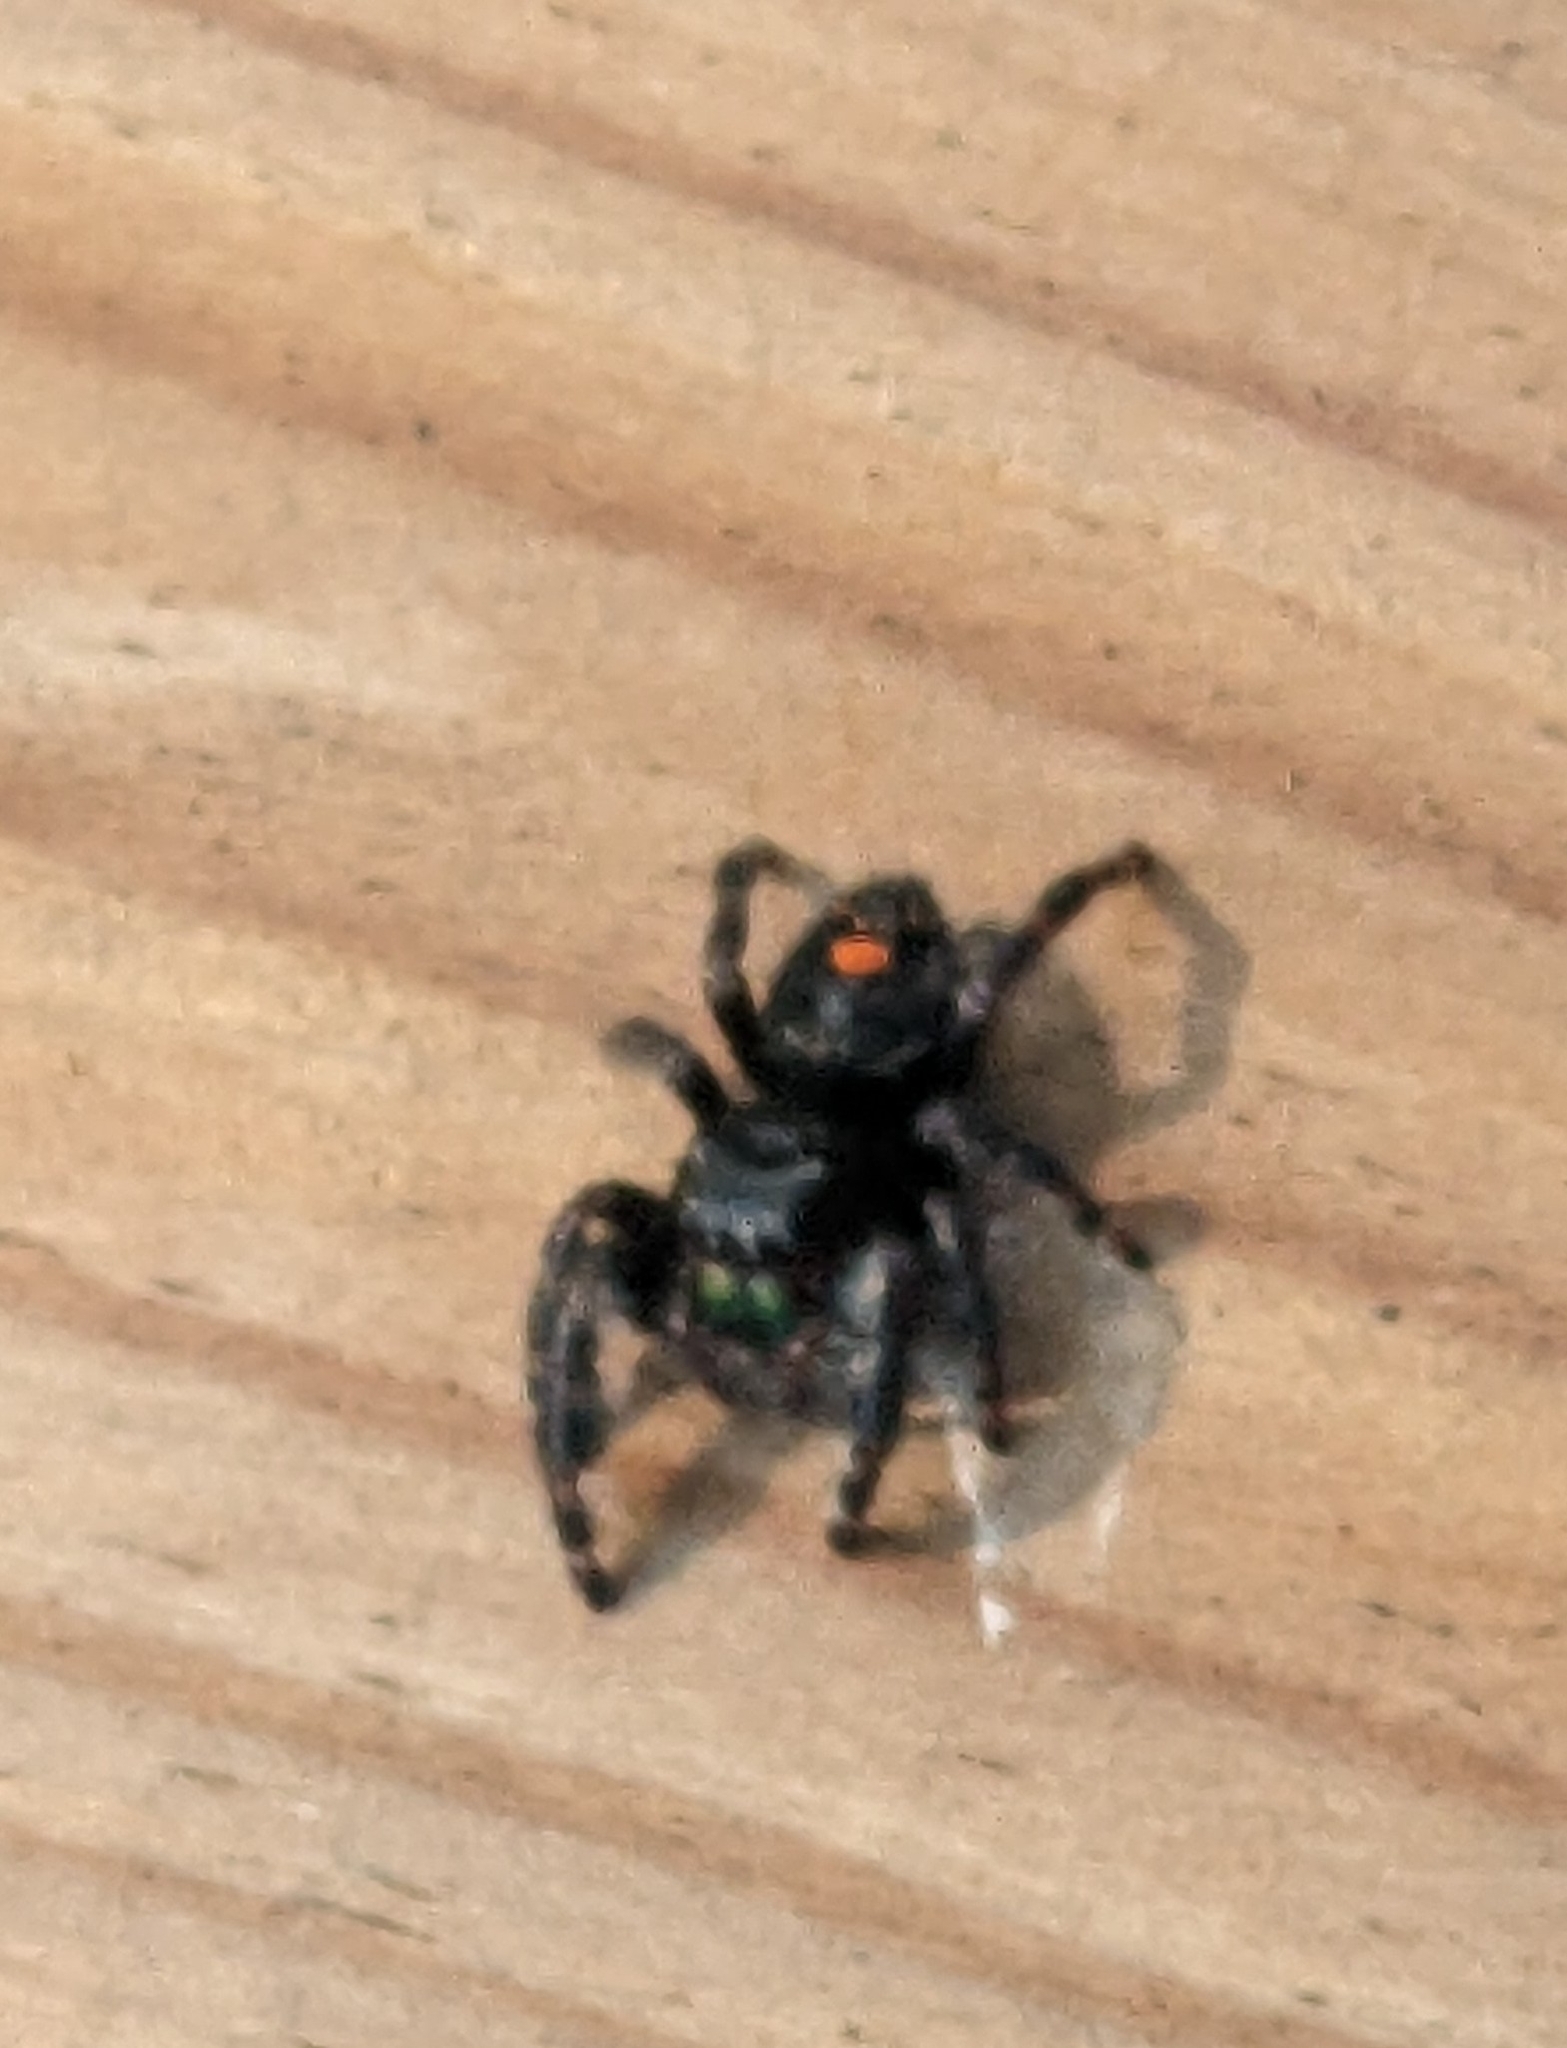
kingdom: Animalia
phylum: Arthropoda
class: Arachnida
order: Araneae
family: Salticidae
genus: Phidippus
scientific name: Phidippus audax
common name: Bold jumper
